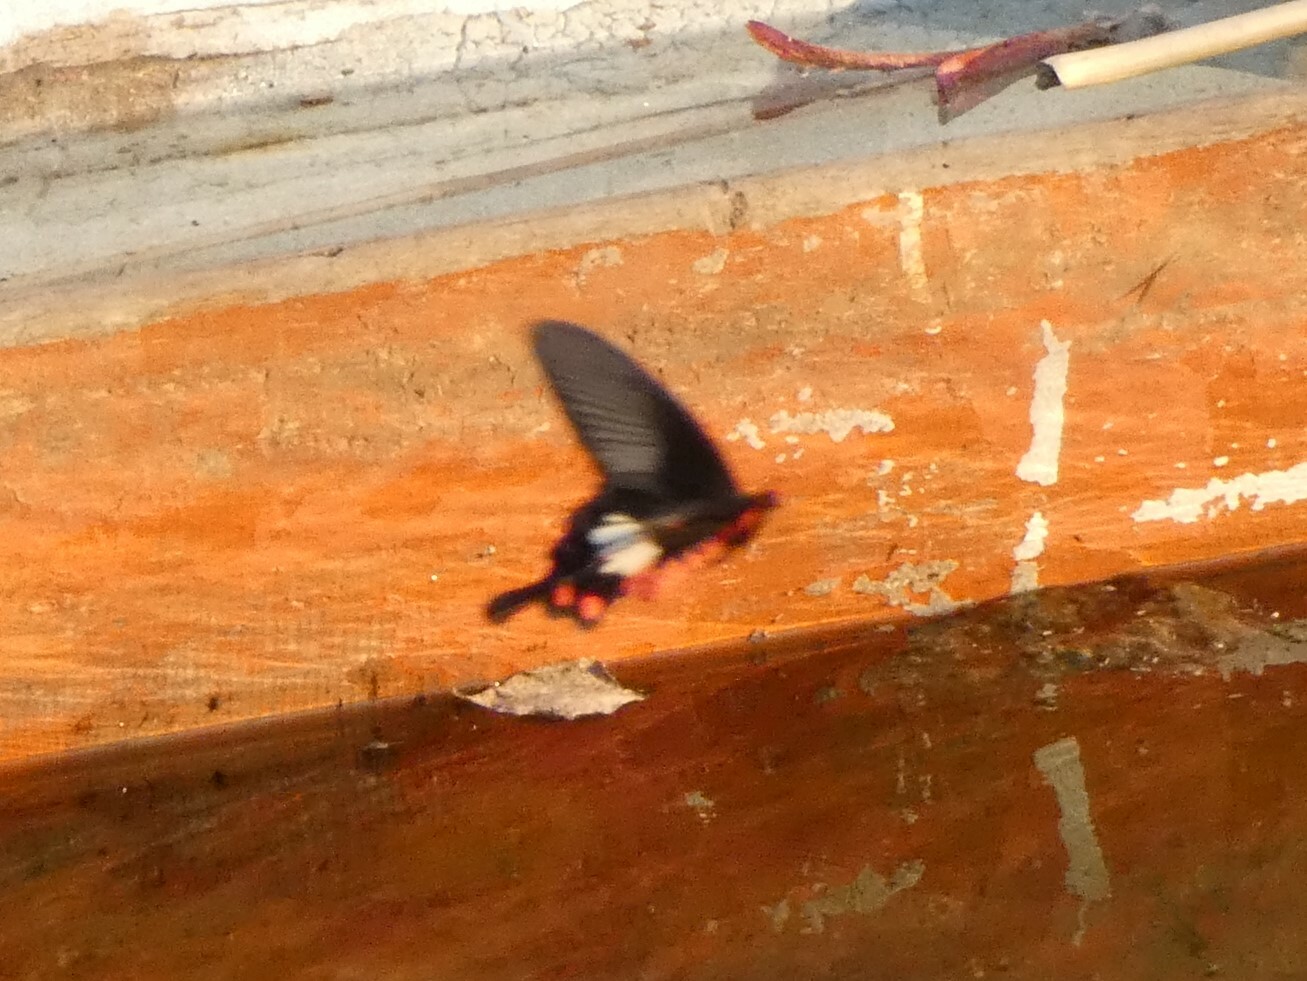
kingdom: Animalia
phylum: Arthropoda
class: Insecta
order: Lepidoptera
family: Papilionidae
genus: Pachliopta
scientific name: Pachliopta aristolochiae
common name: Common rose
